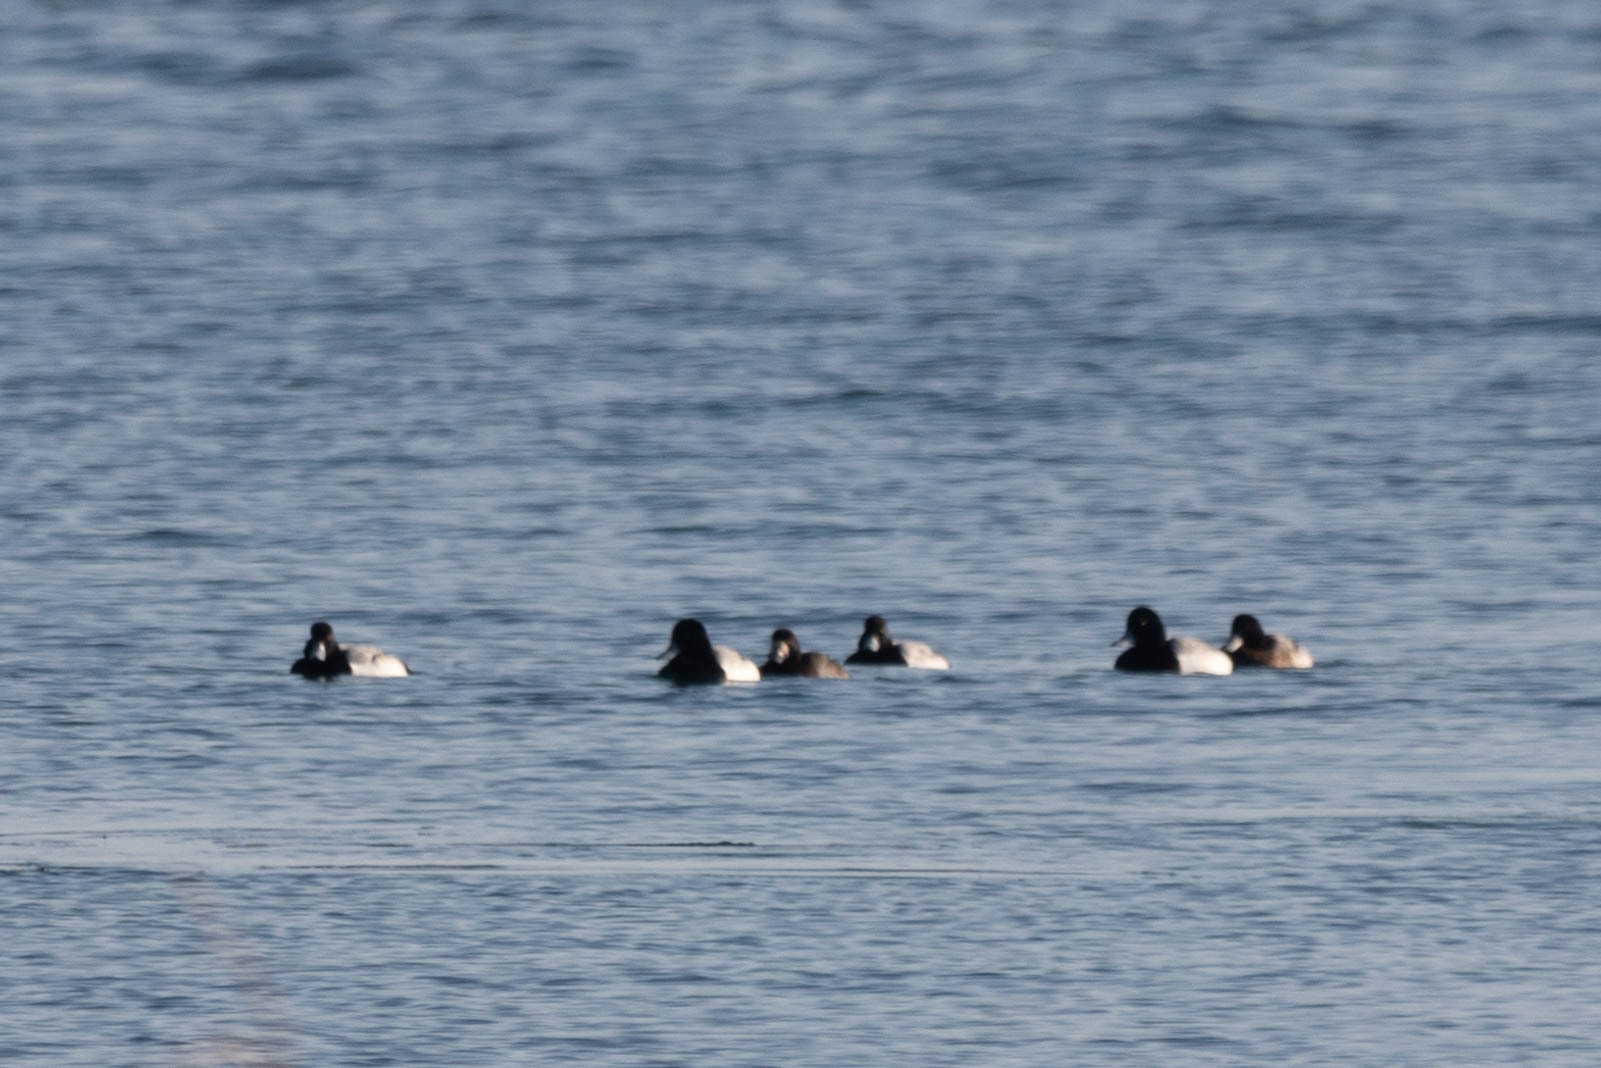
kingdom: Animalia
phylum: Chordata
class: Aves
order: Anseriformes
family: Anatidae
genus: Aythya
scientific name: Aythya marila
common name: Greater scaup
